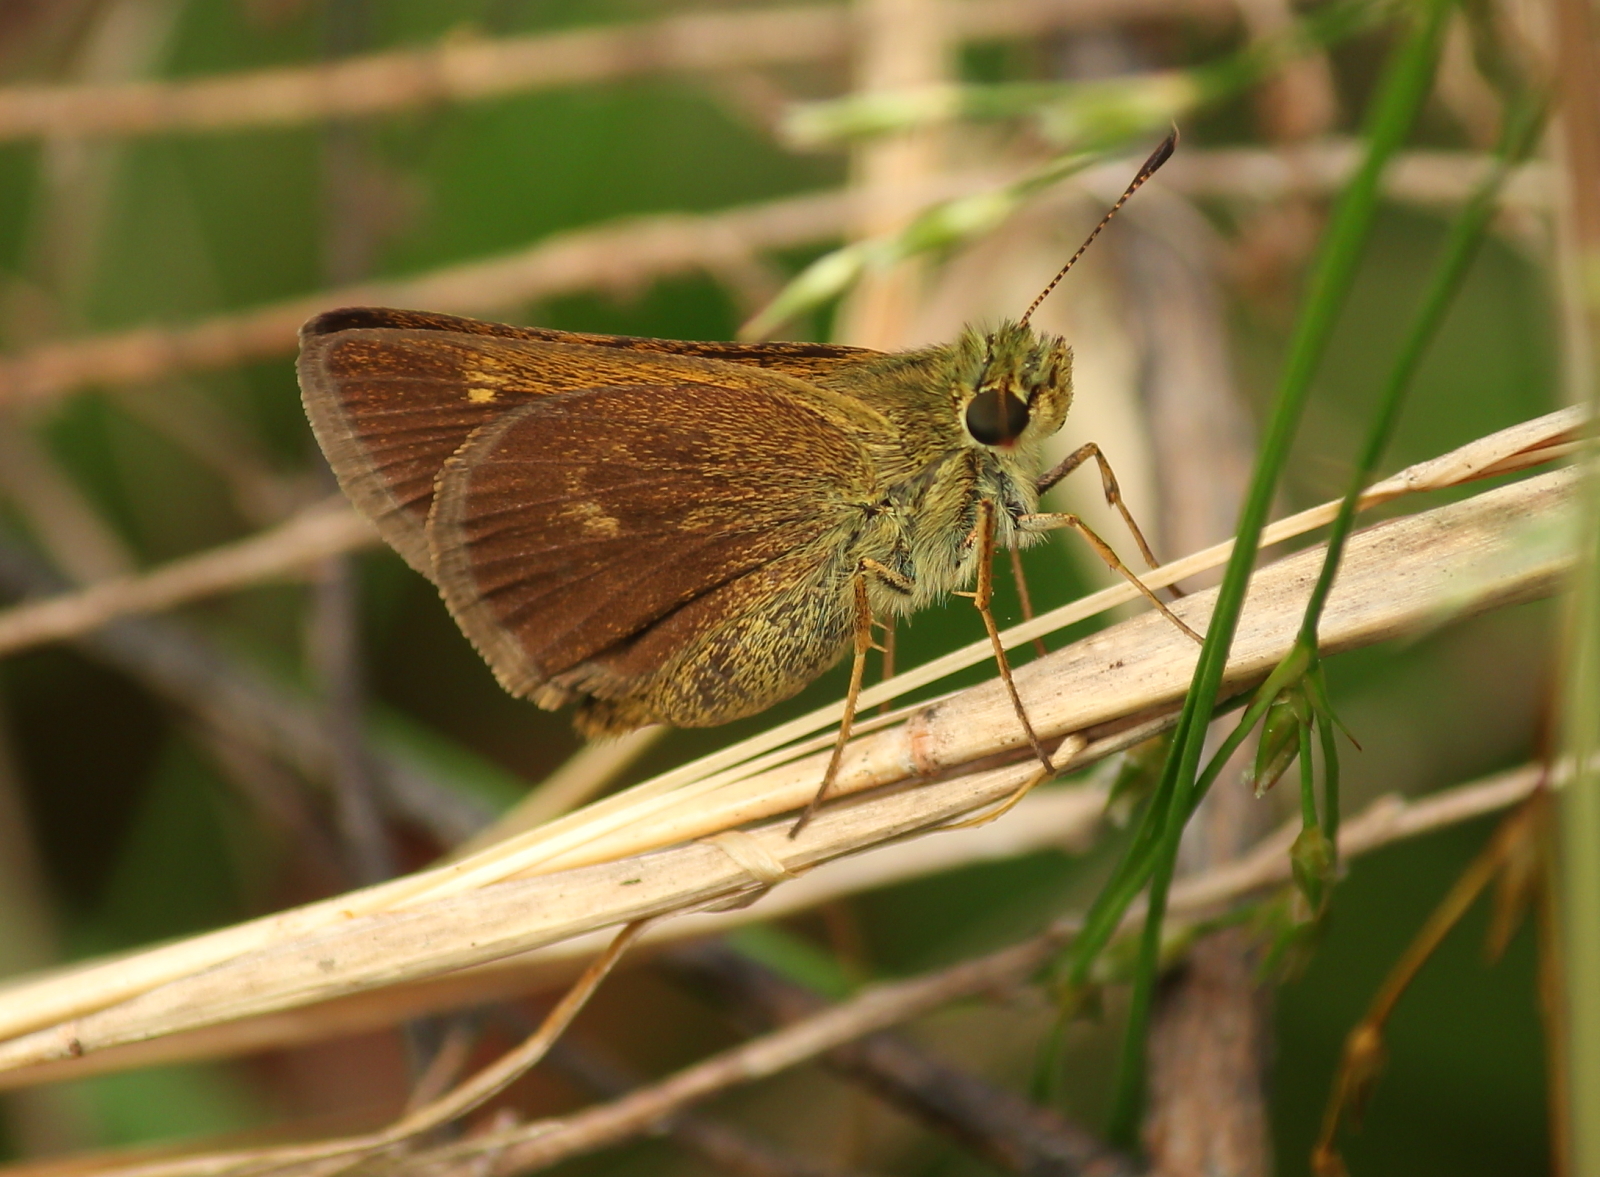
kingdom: Animalia
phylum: Arthropoda
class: Insecta
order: Lepidoptera
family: Hesperiidae
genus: Polites
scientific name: Polites egeremet
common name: Northern broken-dash
